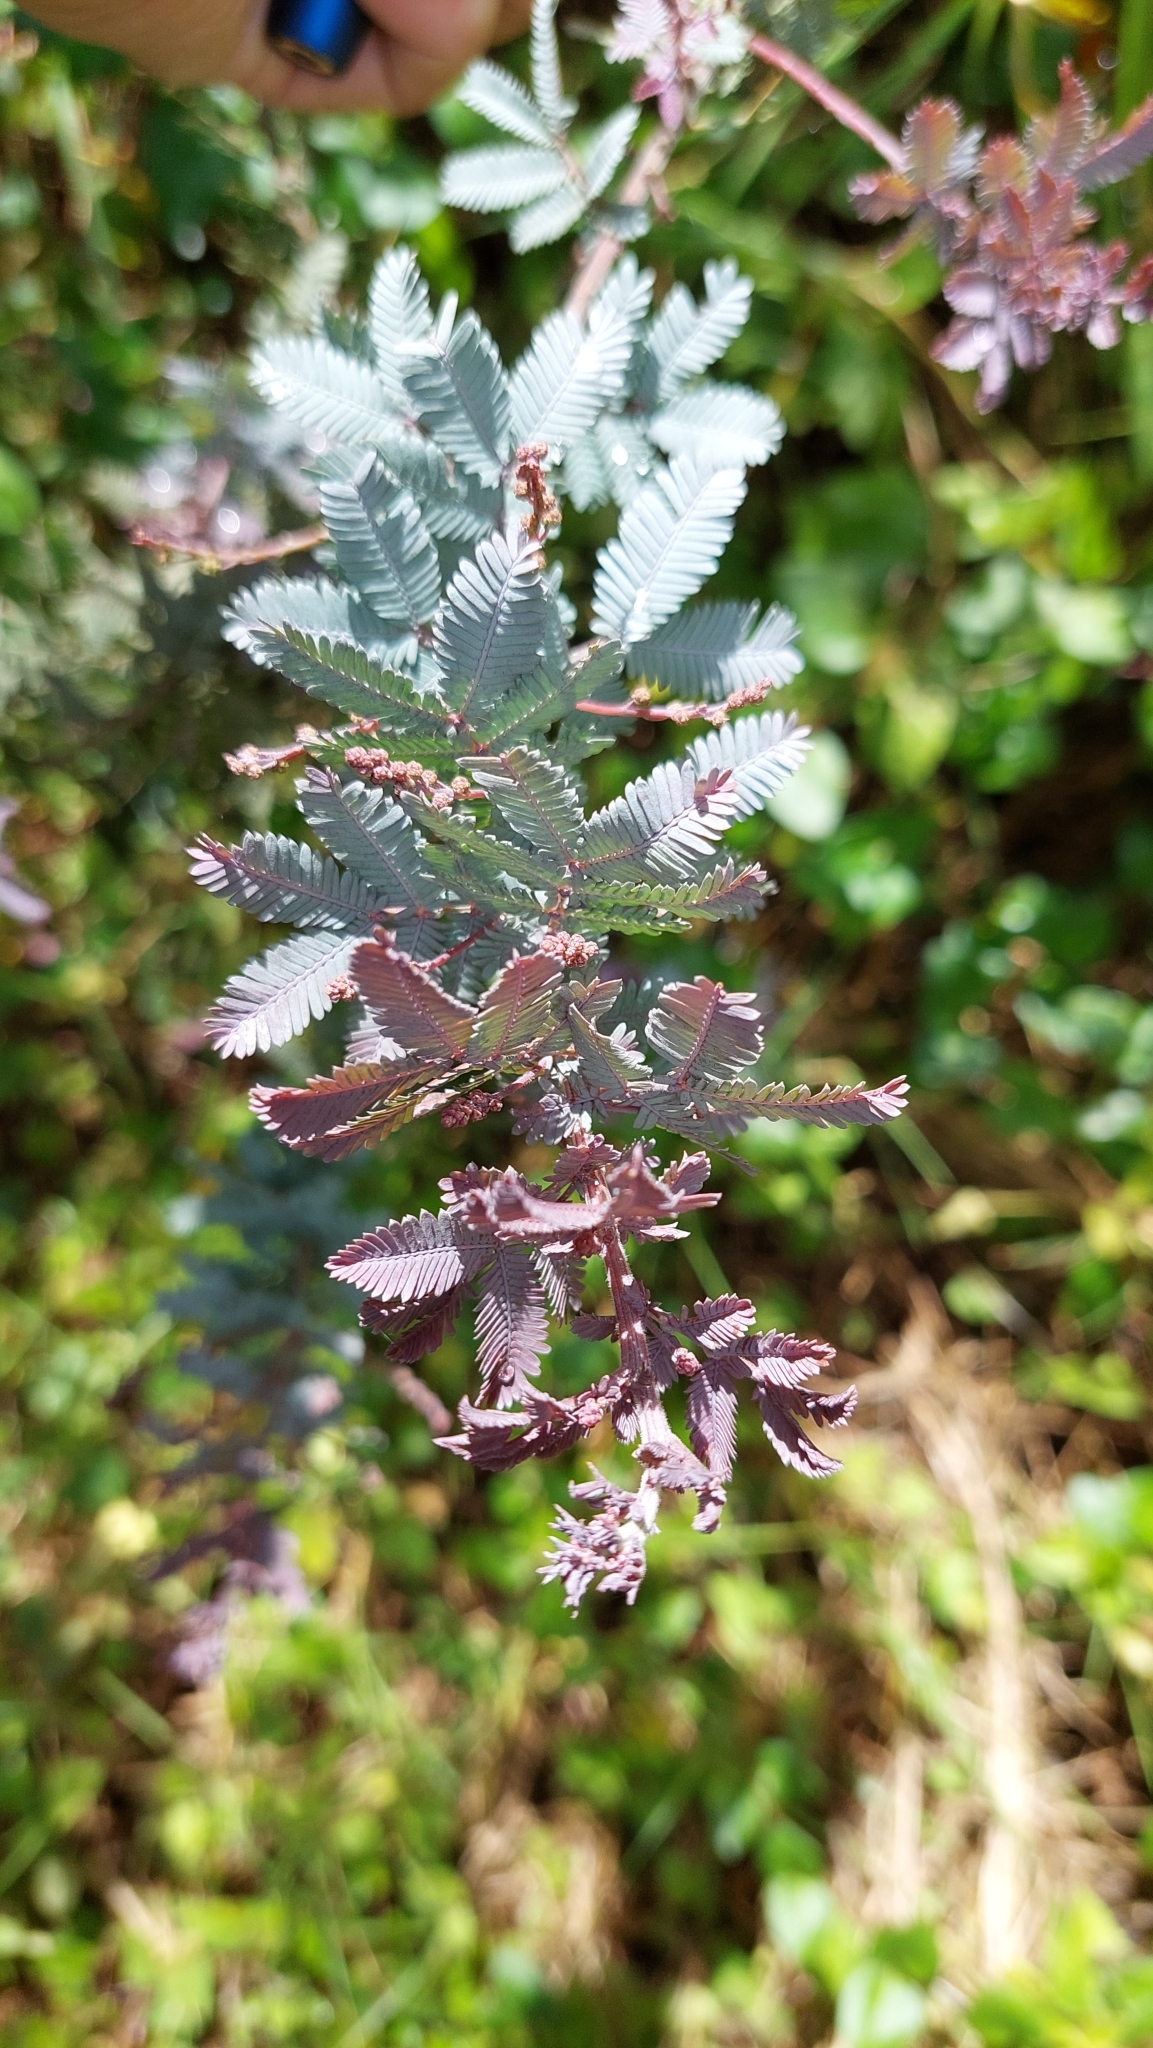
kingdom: Plantae
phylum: Tracheophyta
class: Magnoliopsida
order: Fabales
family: Fabaceae
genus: Acacia
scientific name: Acacia baileyana
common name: Cootamundra wattle
